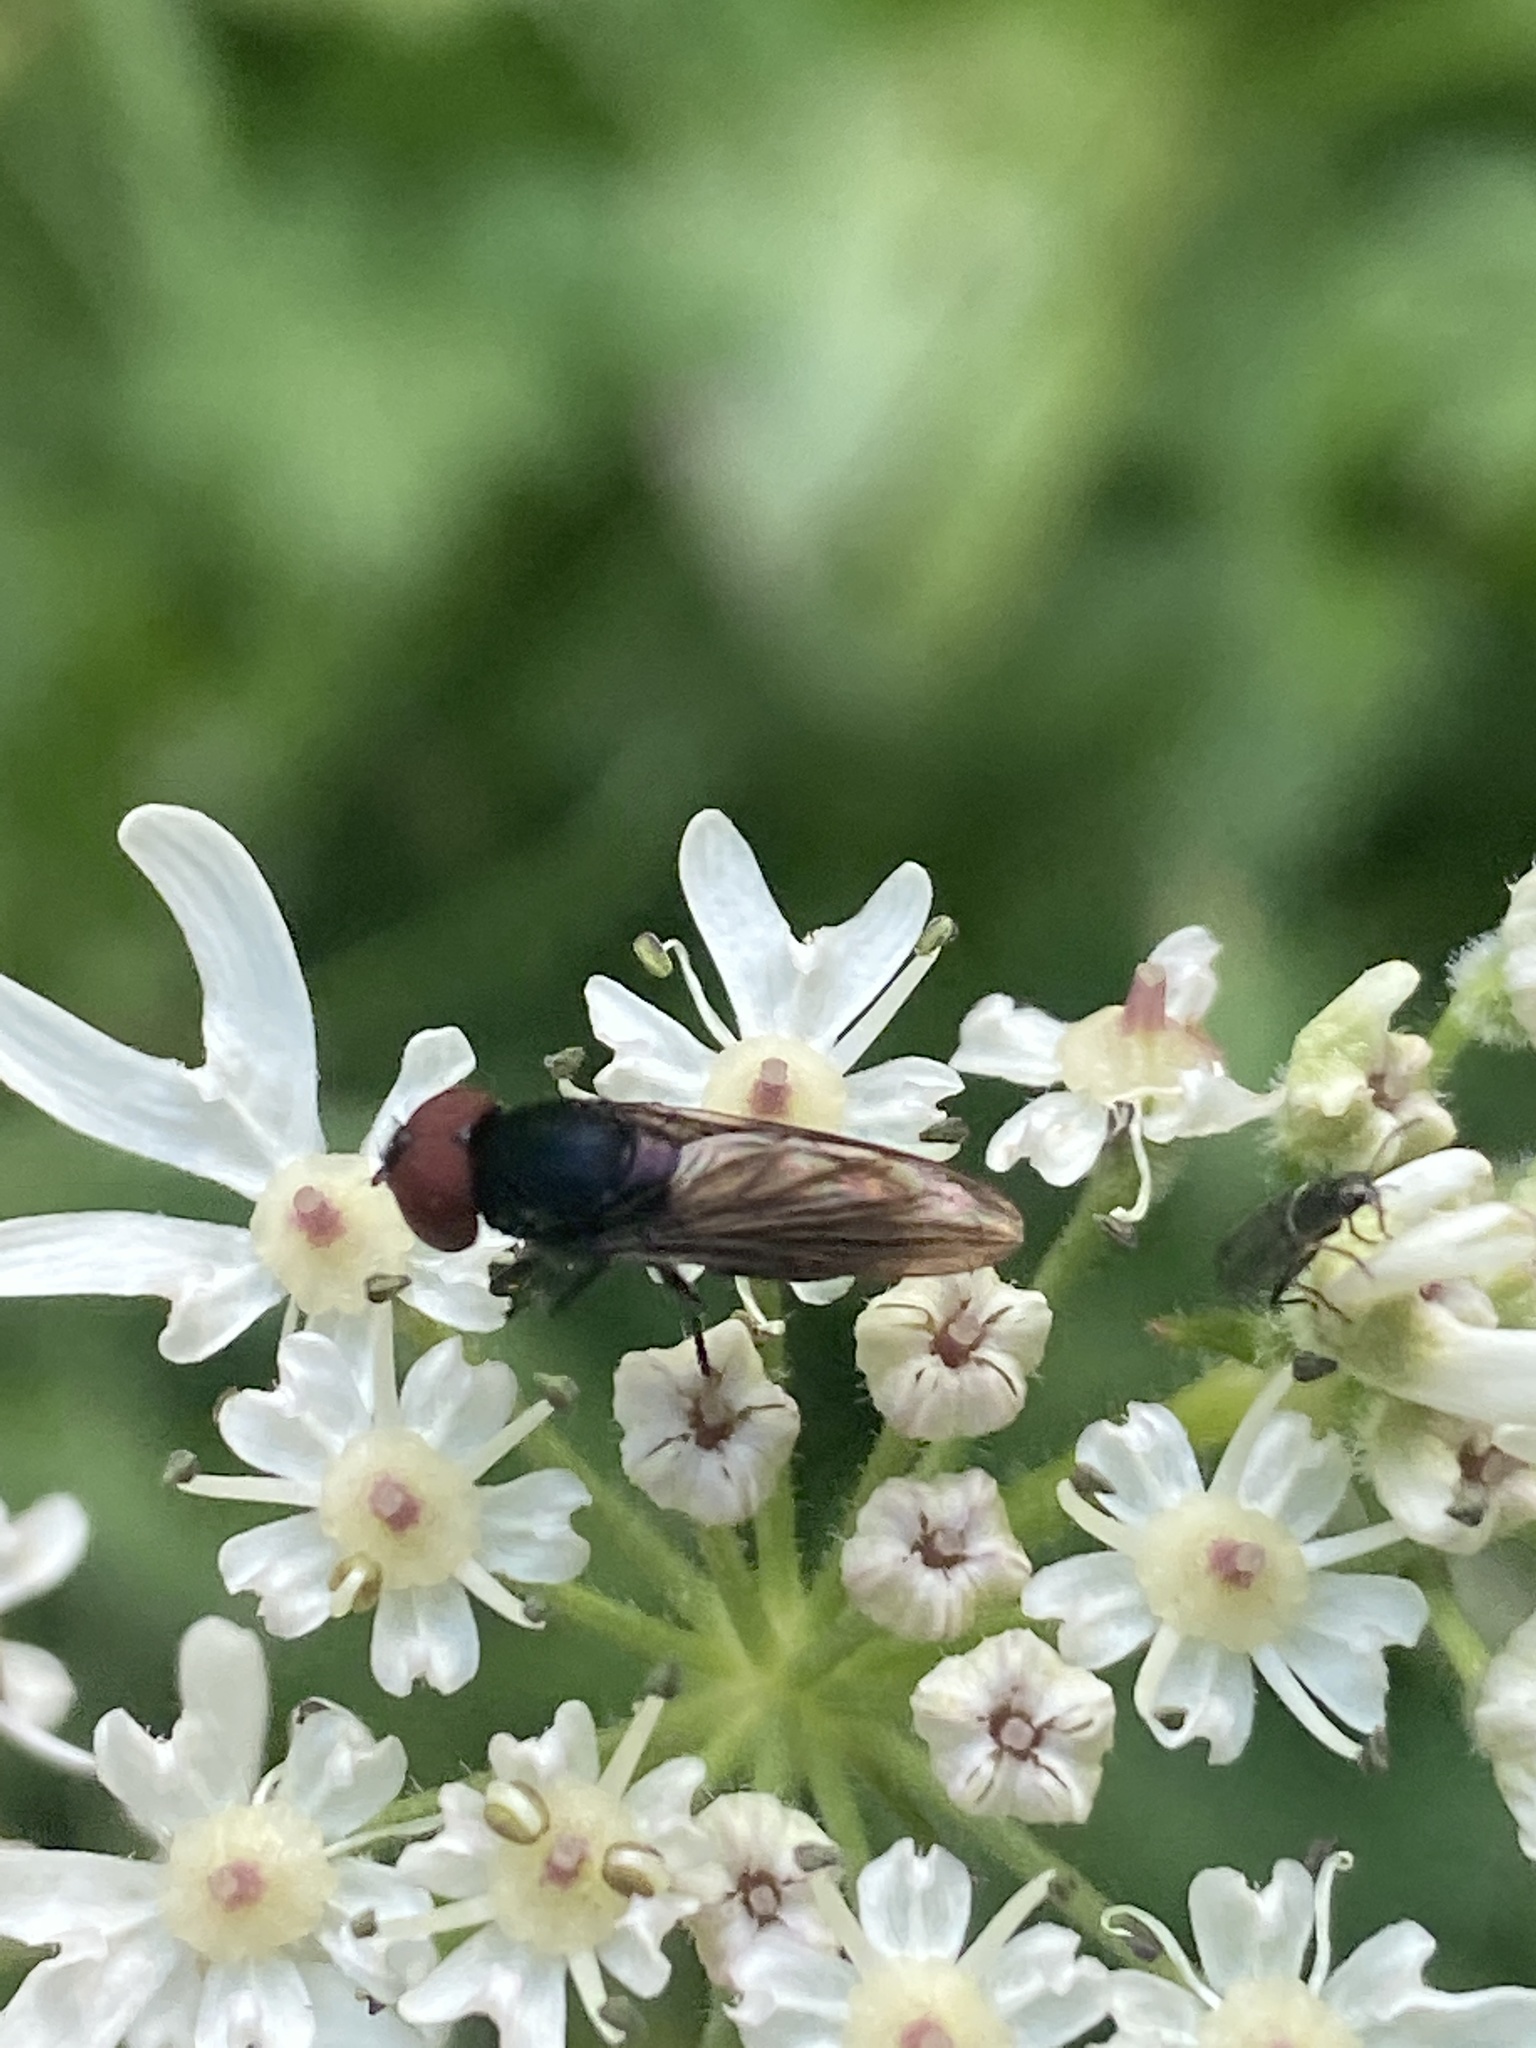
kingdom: Animalia
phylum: Arthropoda
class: Insecta
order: Diptera
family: Syrphidae
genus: Chrysogaster
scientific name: Chrysogaster solstitialis
